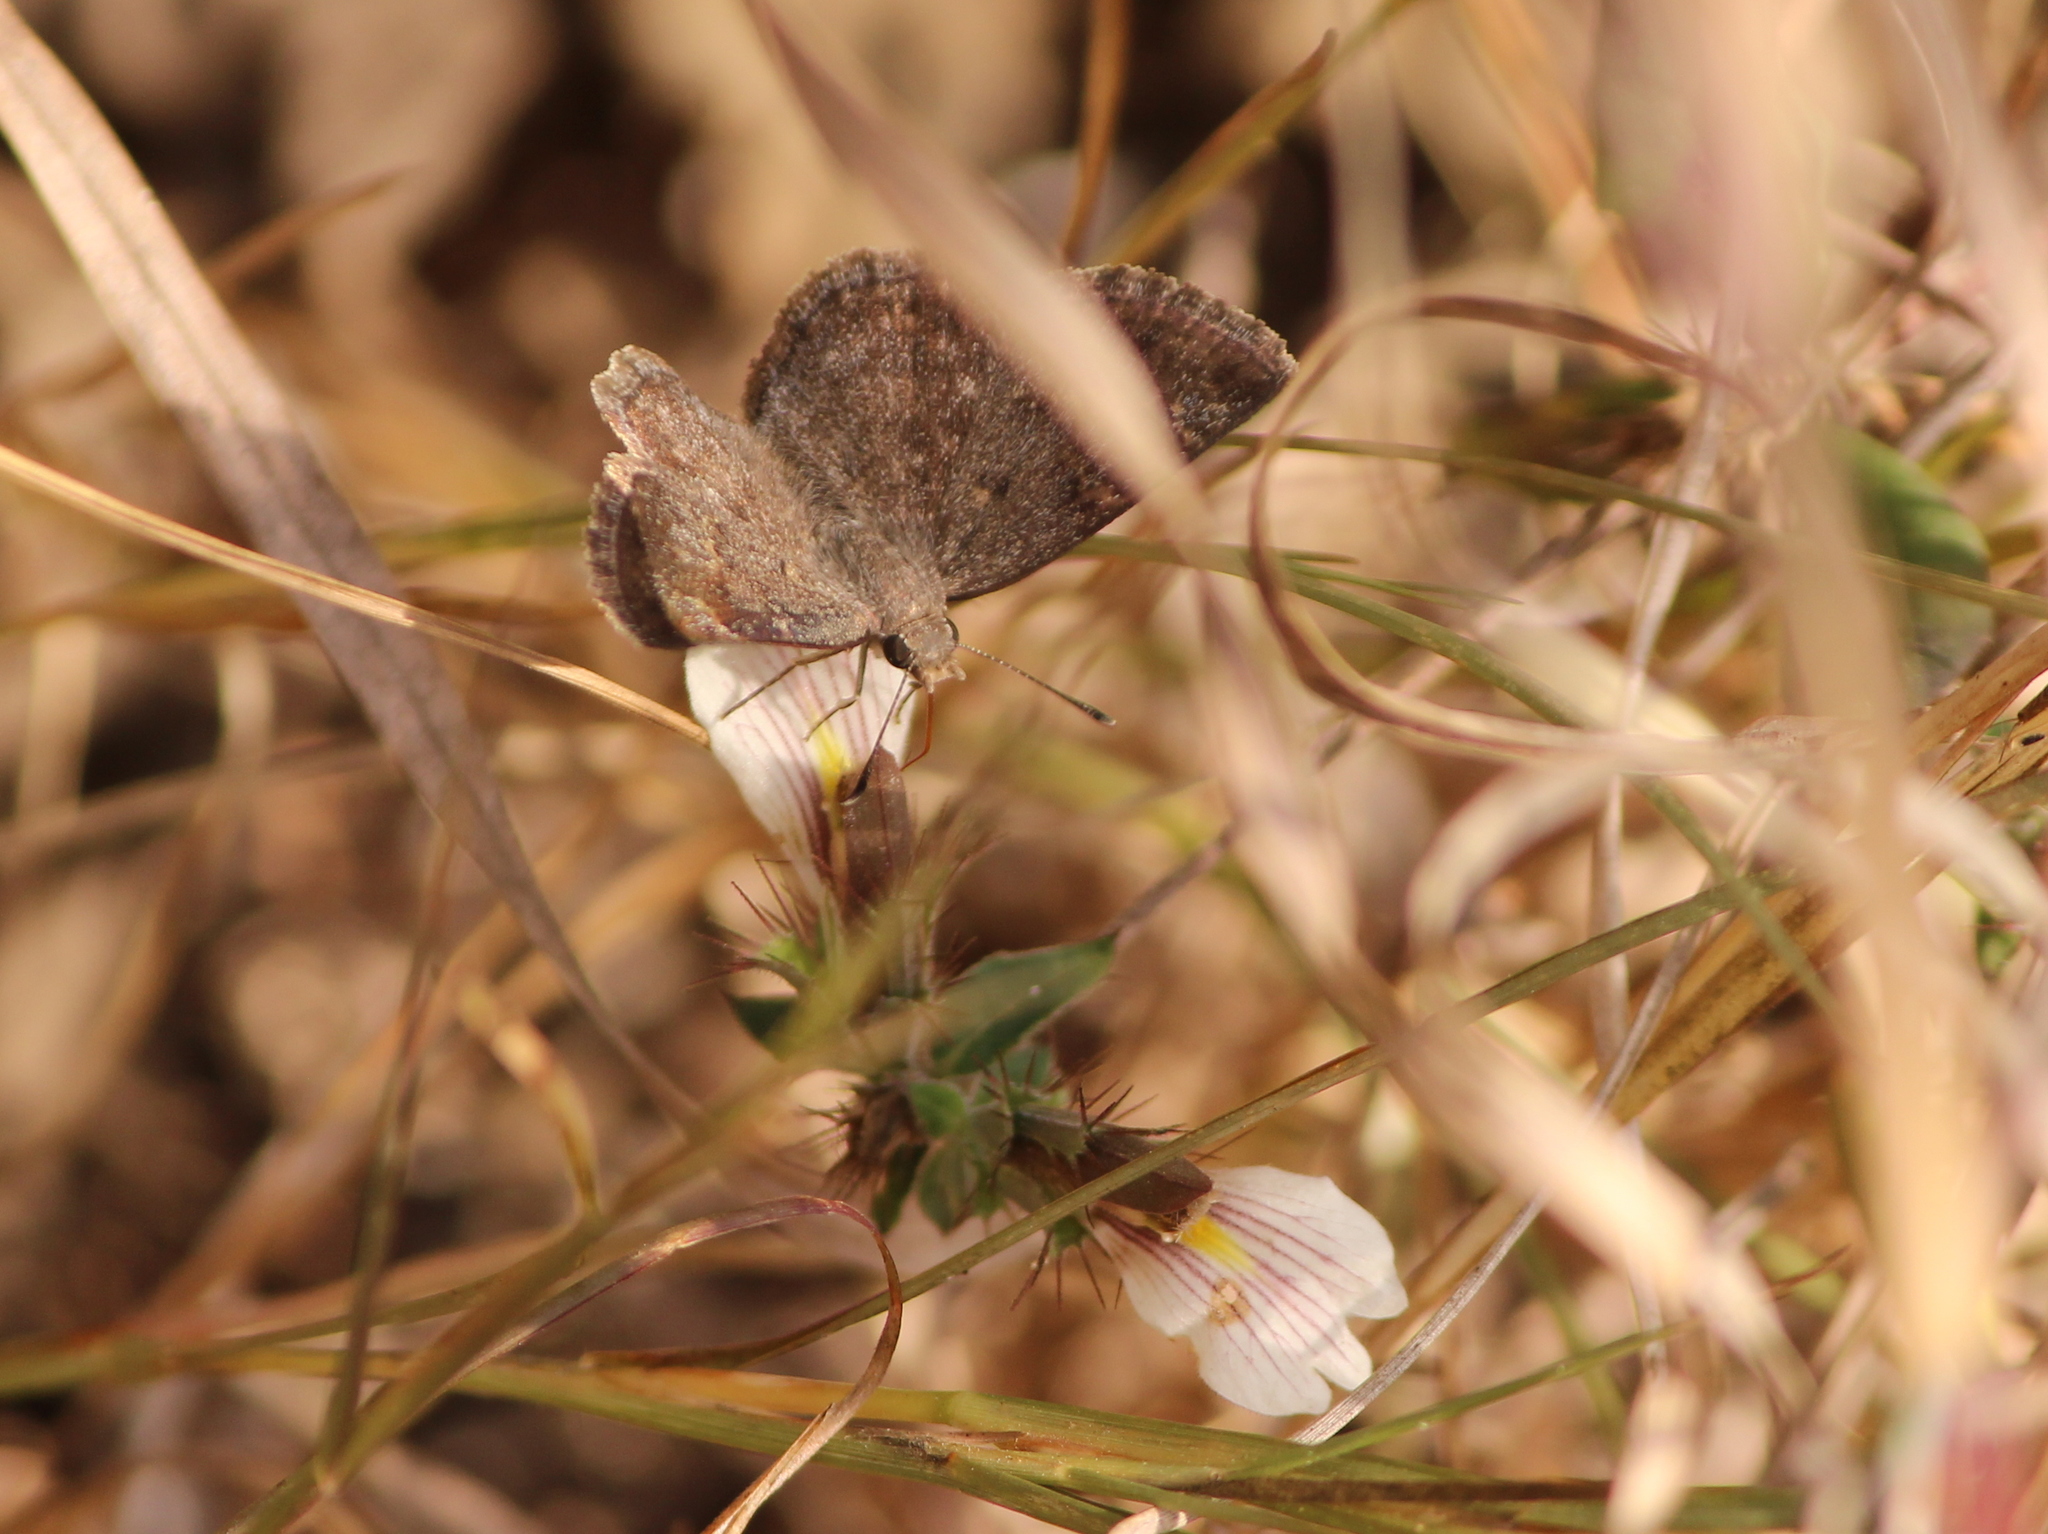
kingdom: Animalia
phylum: Arthropoda
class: Insecta
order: Lepidoptera
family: Hesperiidae
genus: Sarangesa
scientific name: Sarangesa purendra
